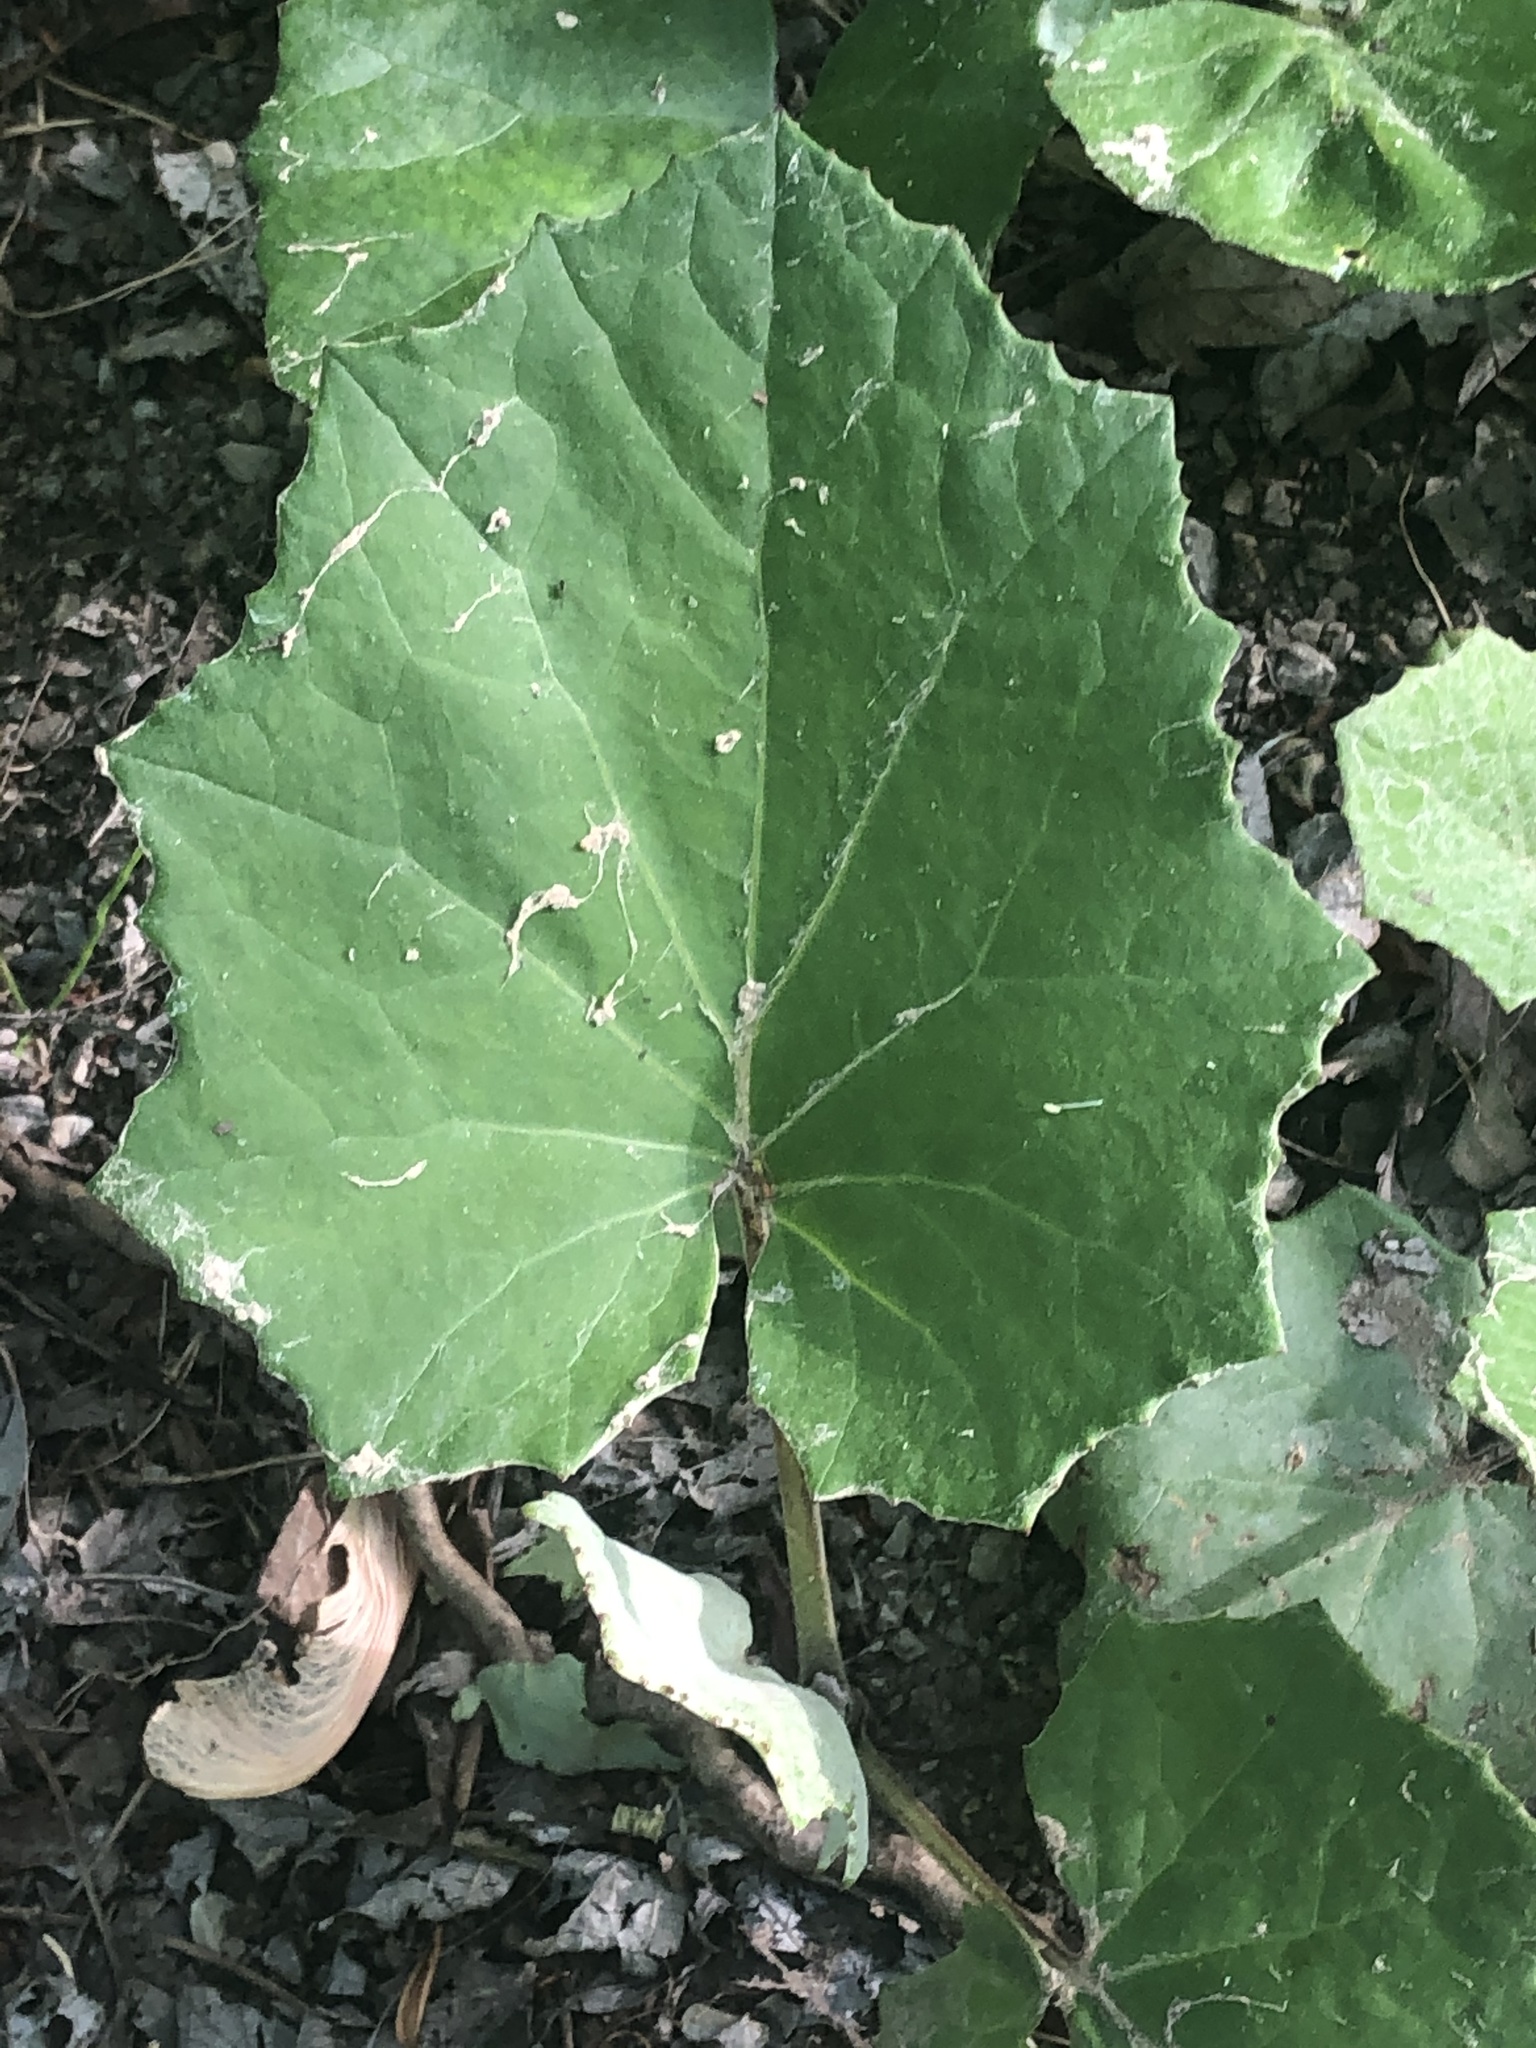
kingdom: Plantae
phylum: Tracheophyta
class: Magnoliopsida
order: Asterales
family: Asteraceae
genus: Tussilago
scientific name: Tussilago farfara
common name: Coltsfoot
